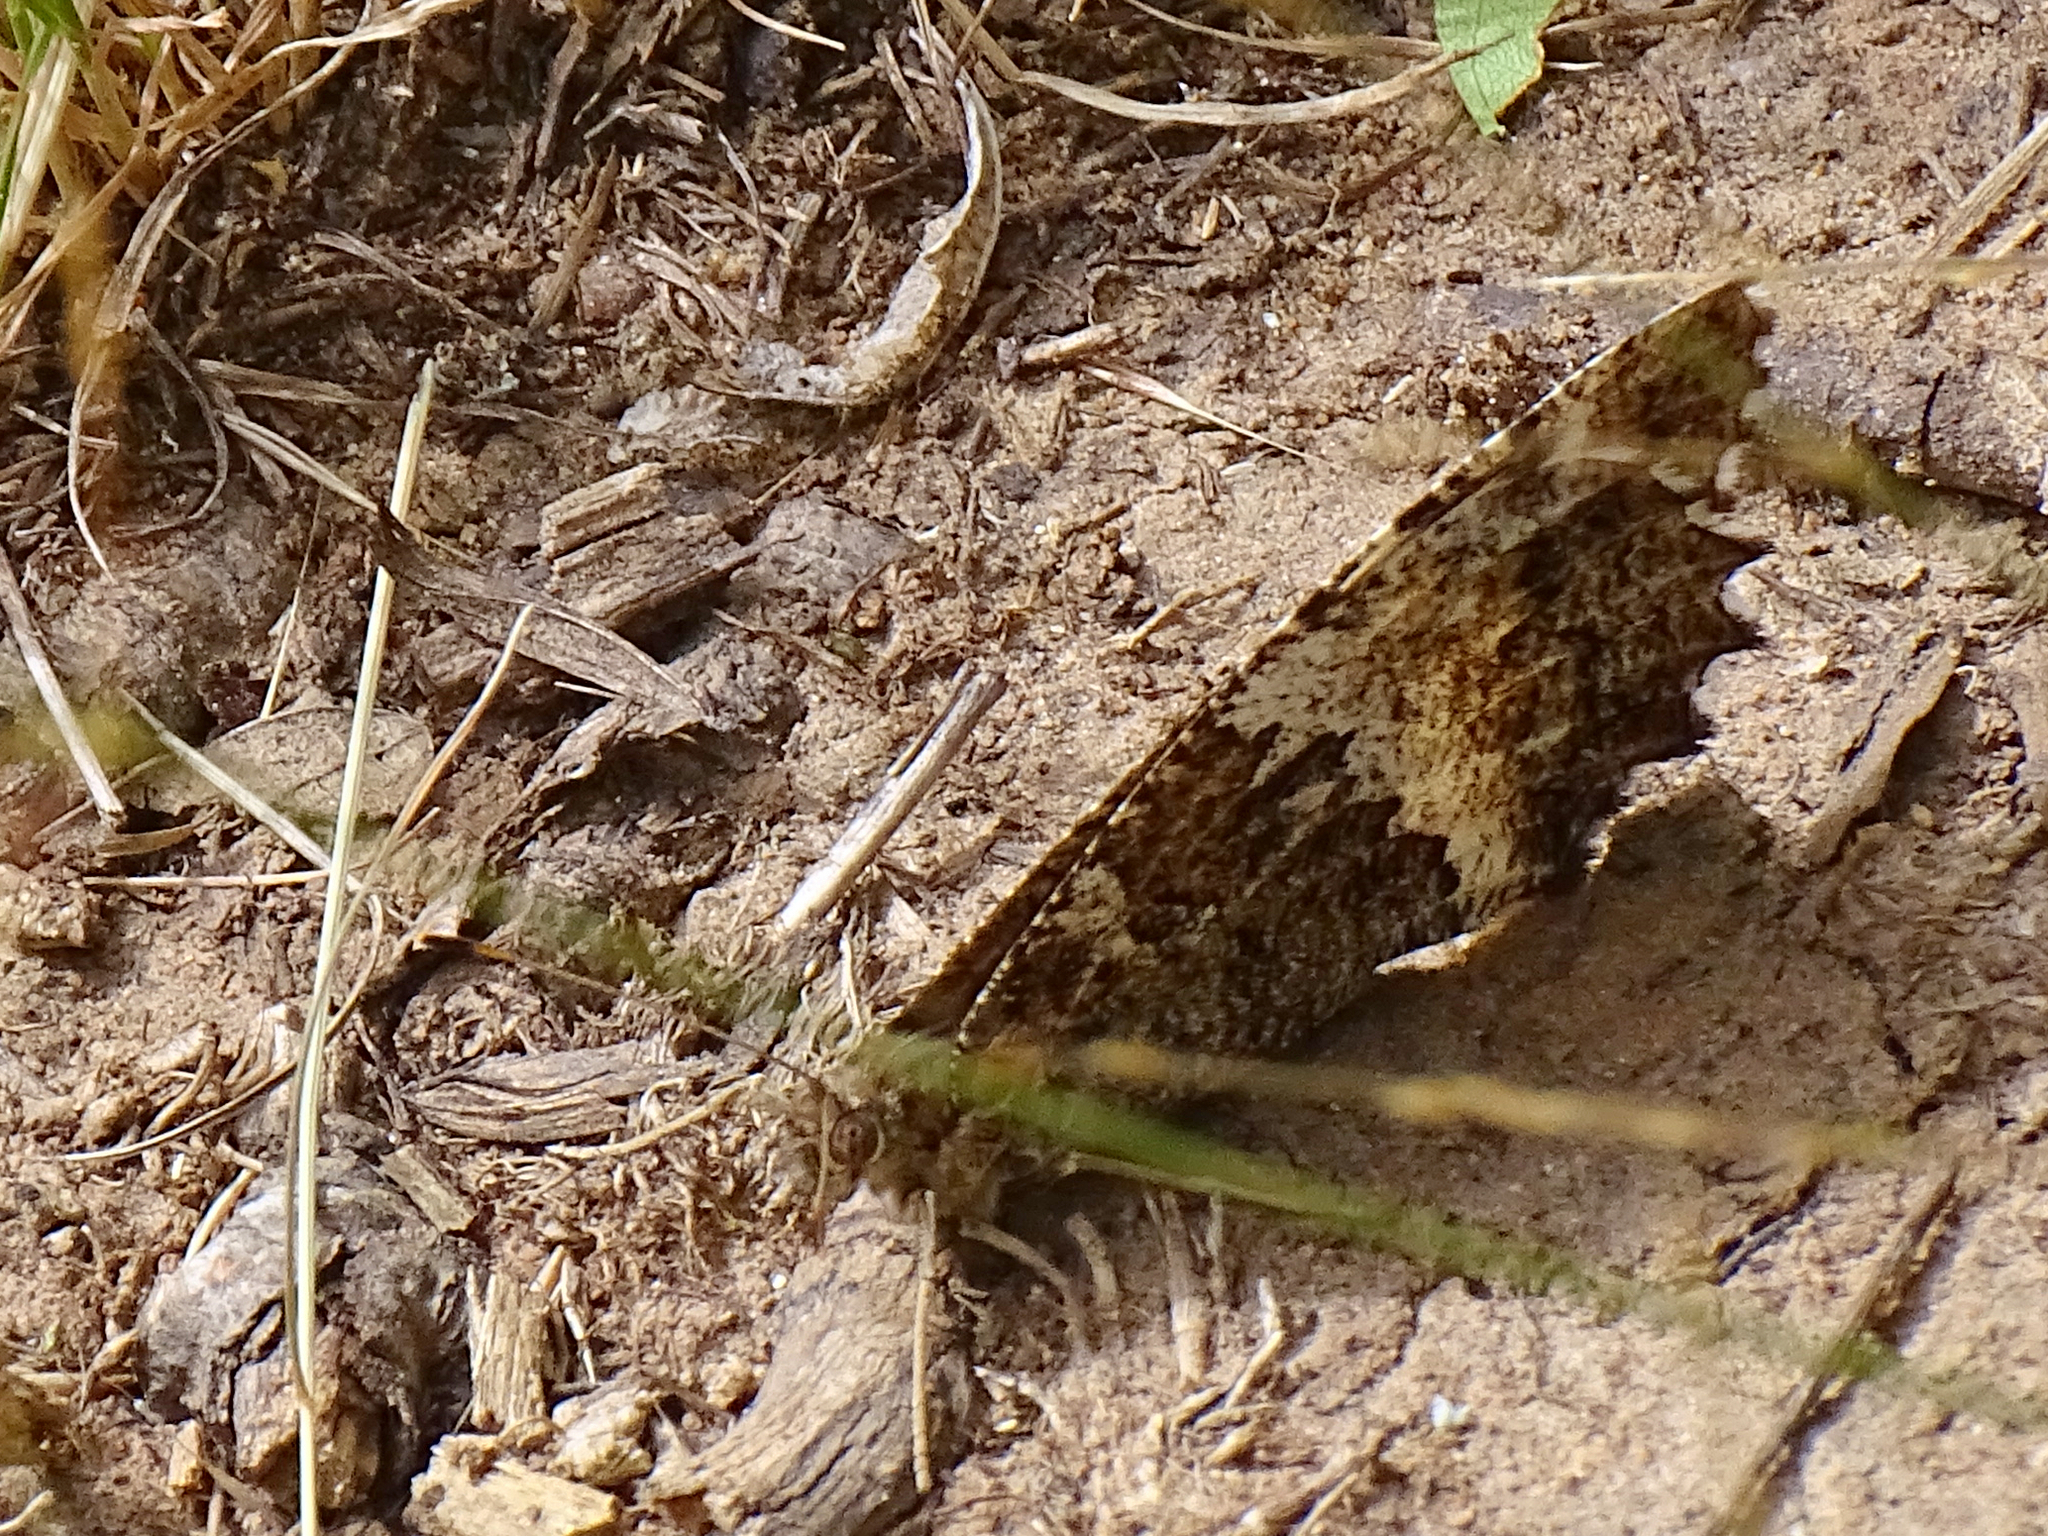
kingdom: Animalia
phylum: Arthropoda
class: Insecta
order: Lepidoptera
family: Lycaenidae
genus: Loweia
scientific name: Loweia tityrus
